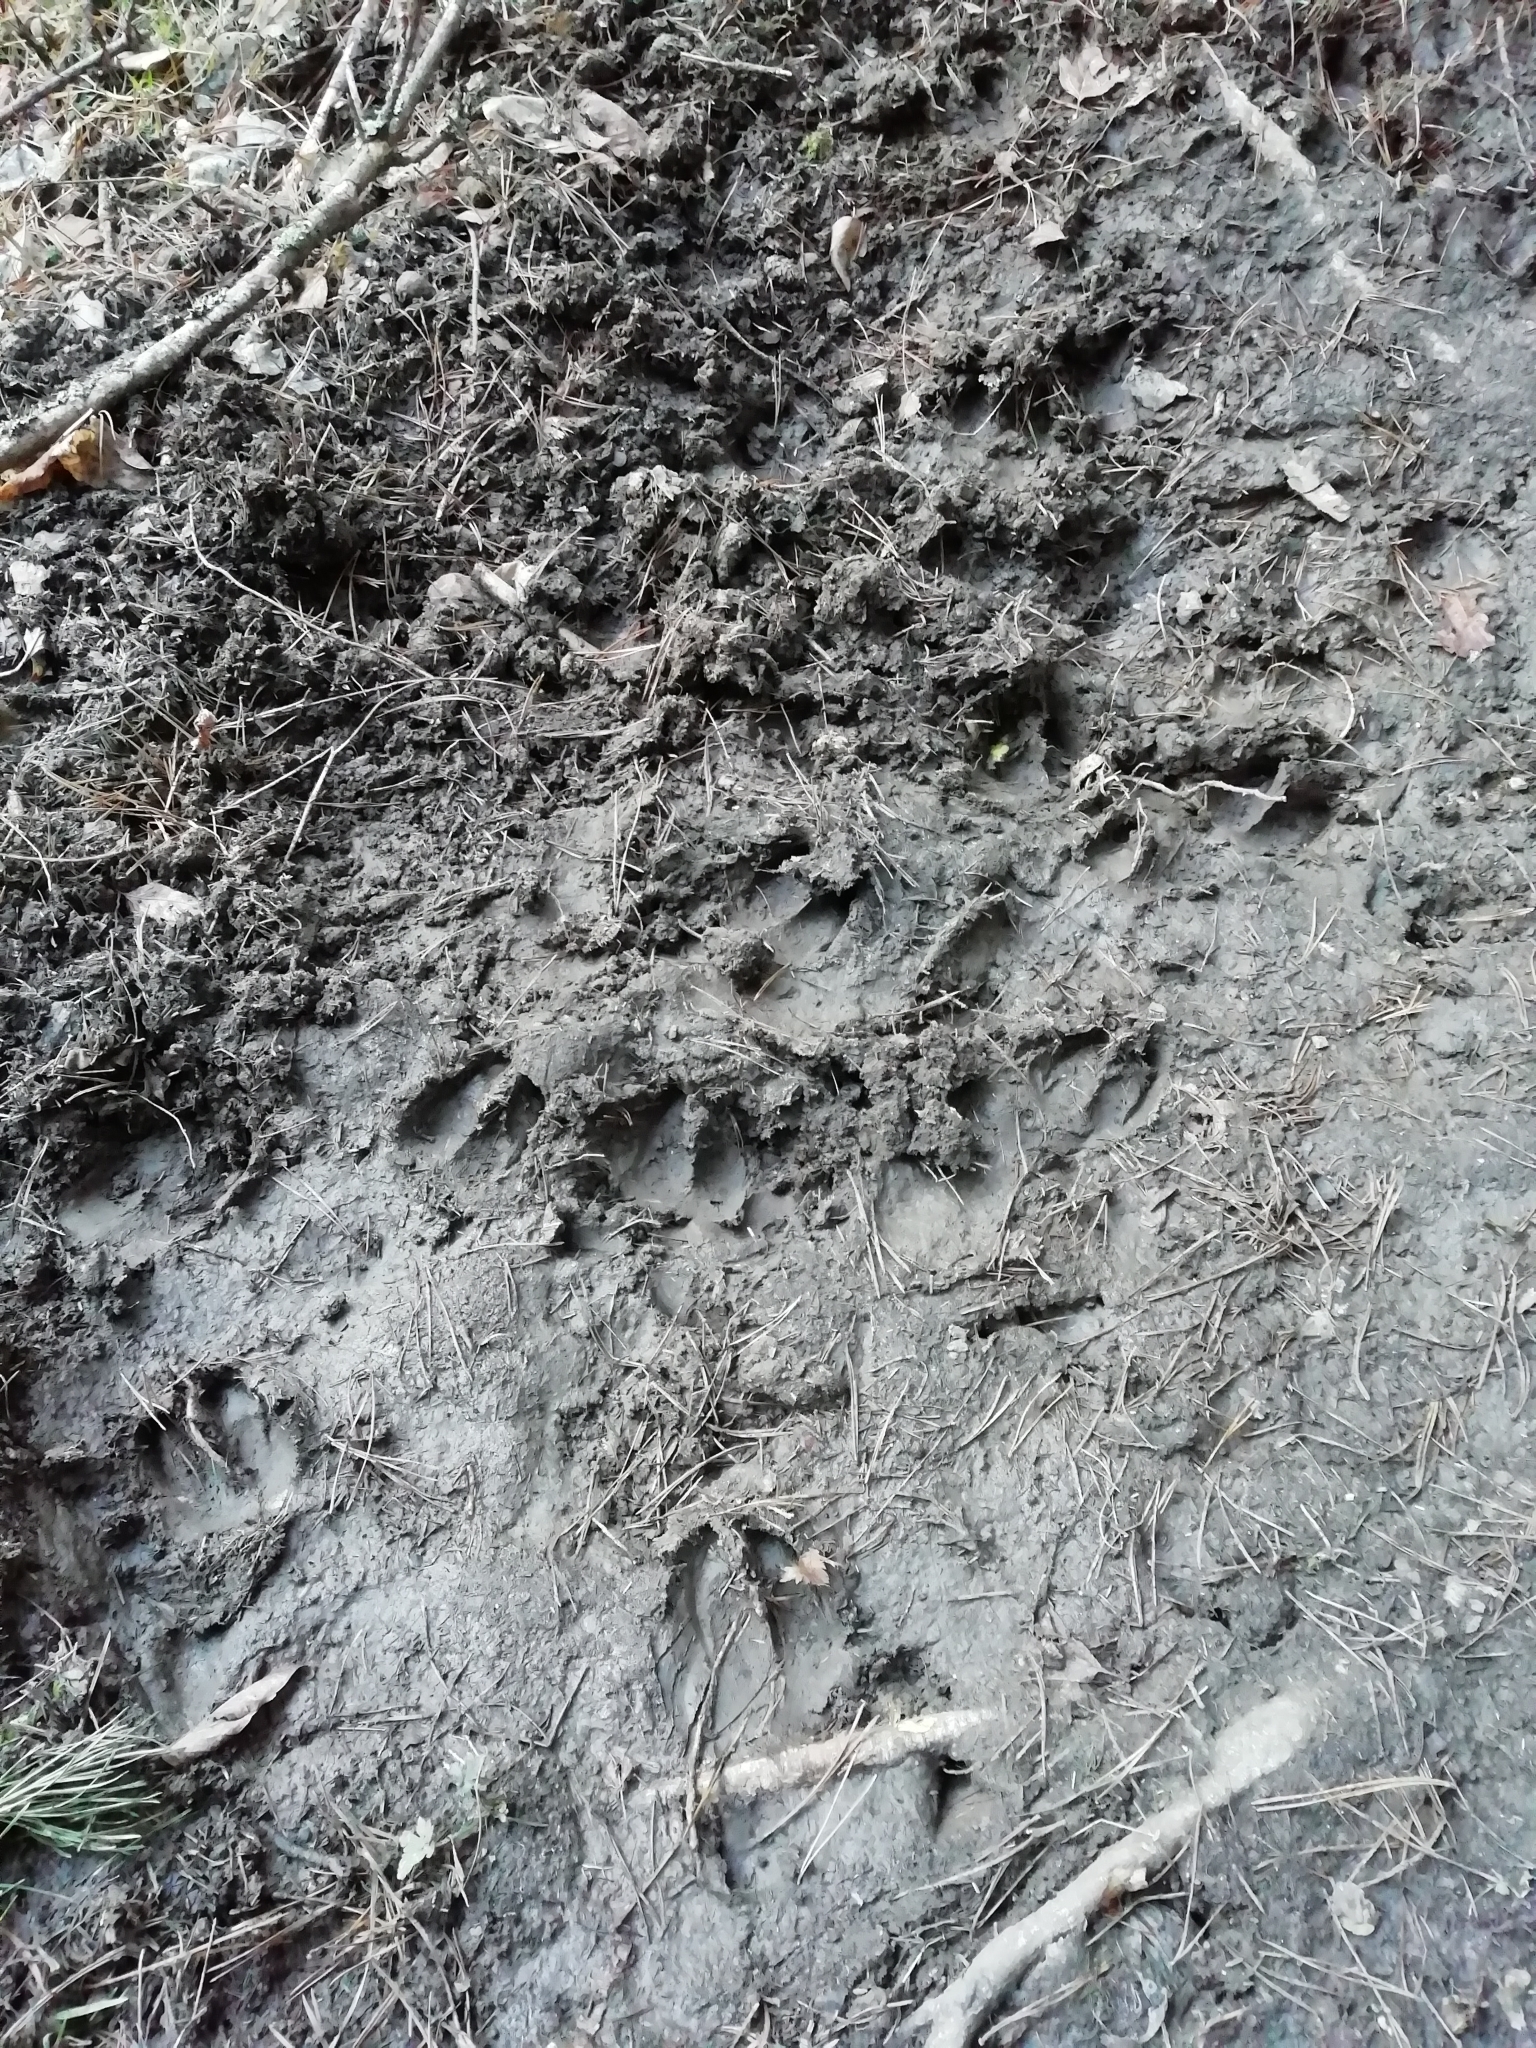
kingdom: Animalia
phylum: Chordata
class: Mammalia
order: Artiodactyla
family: Suidae
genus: Sus
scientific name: Sus scrofa
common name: Wild boar
